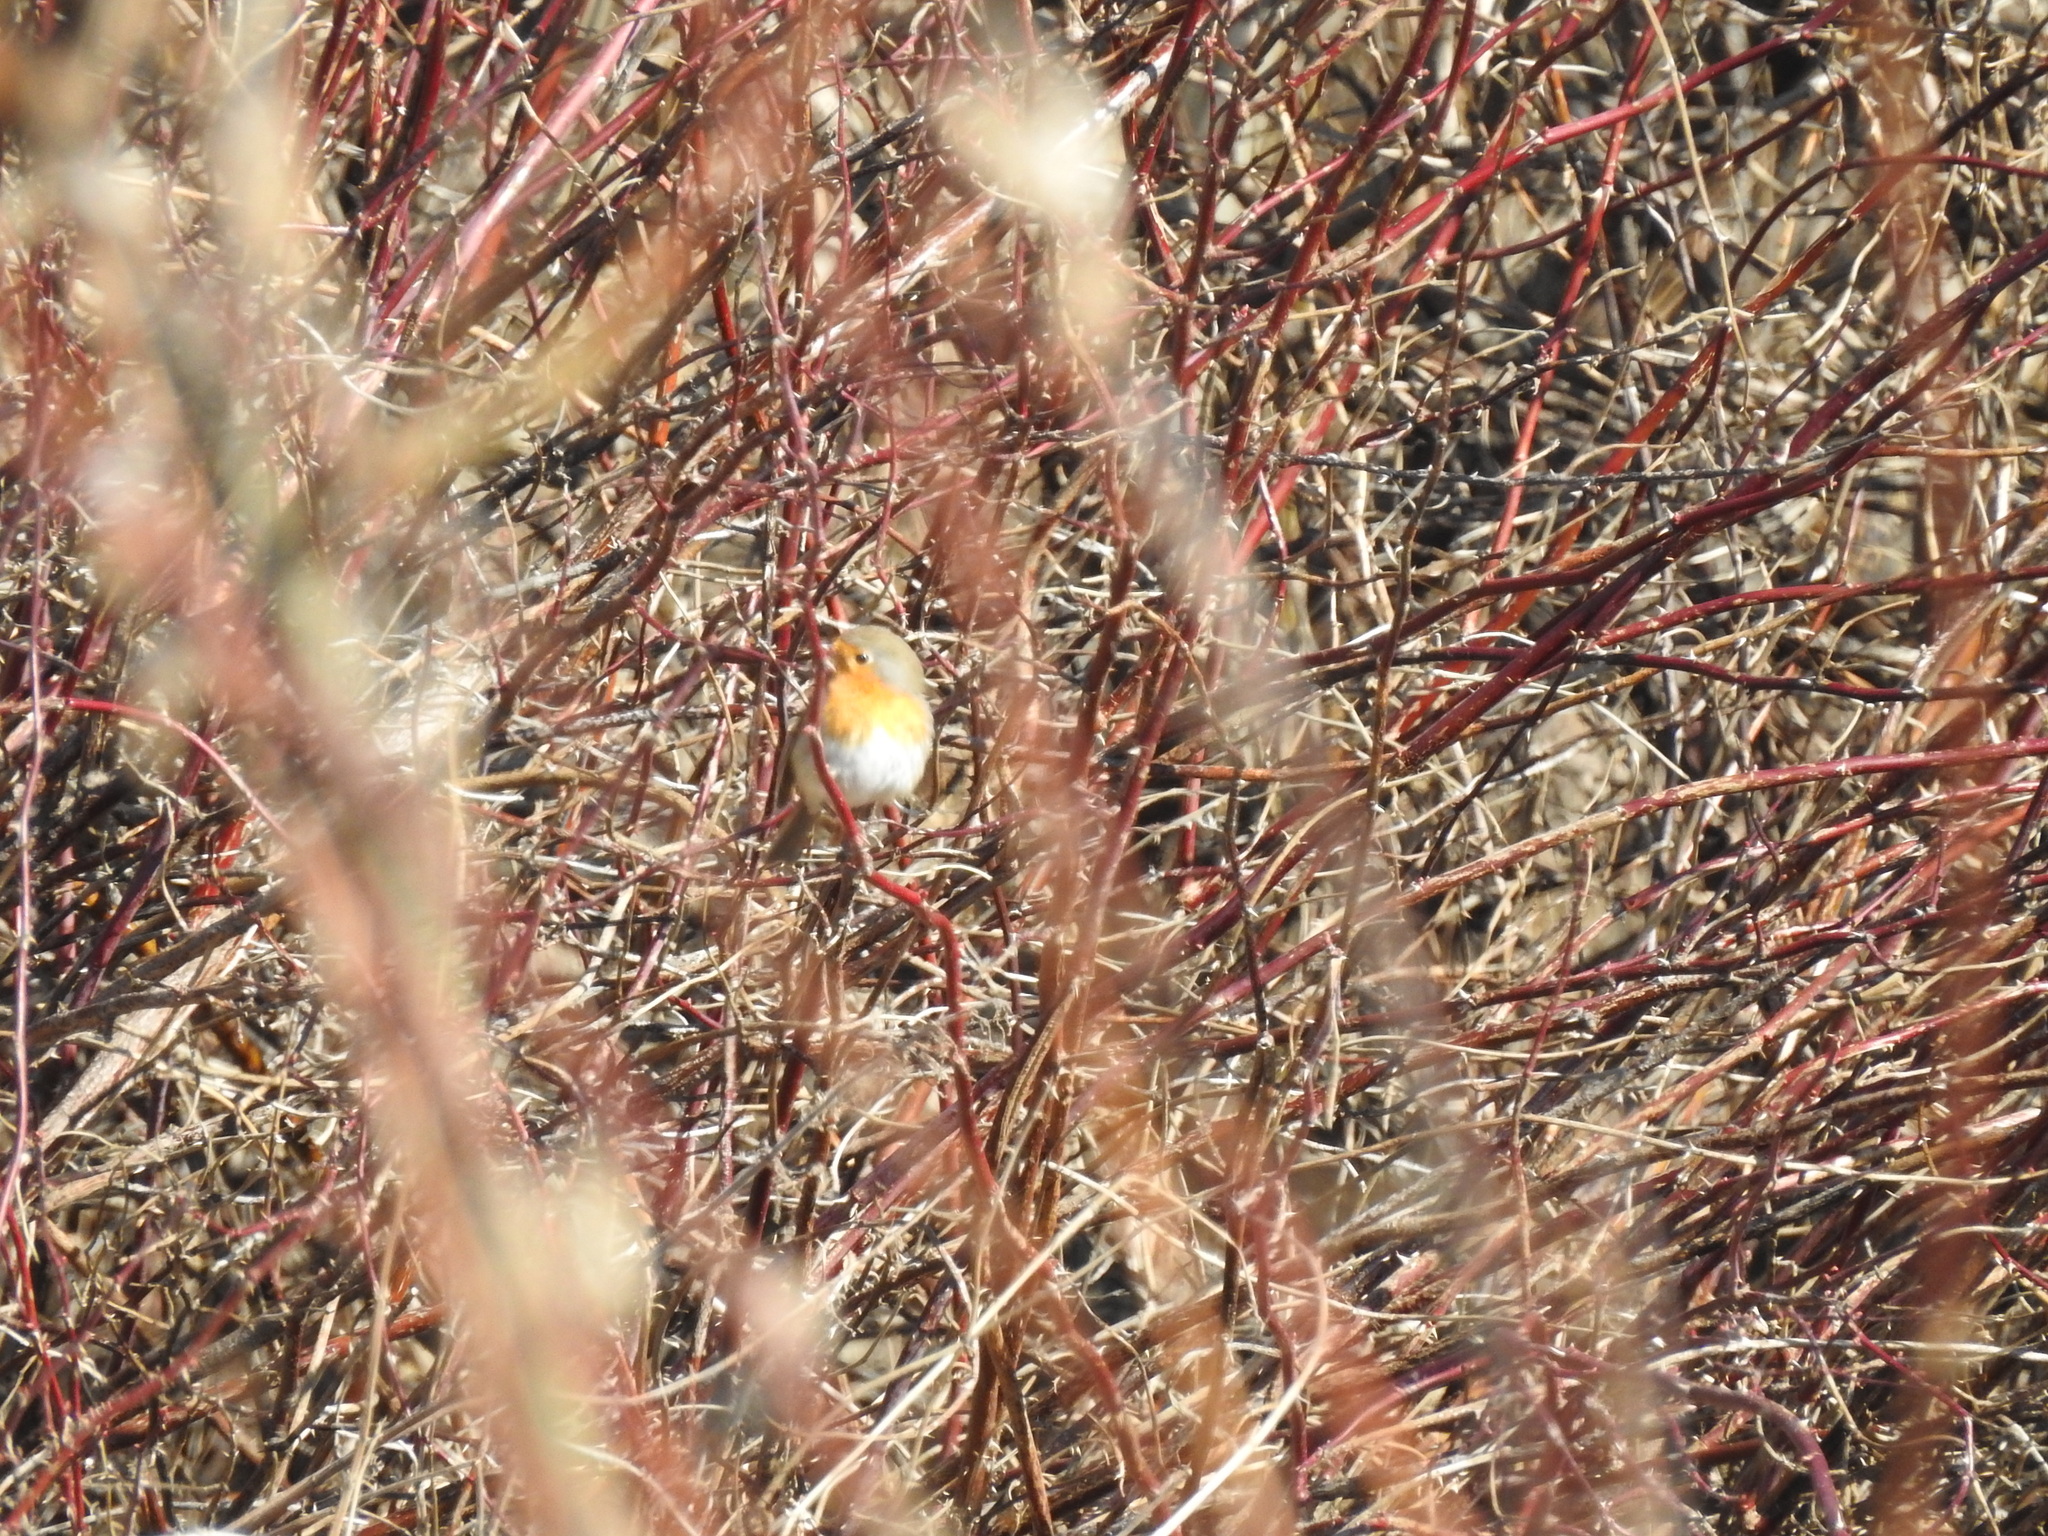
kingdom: Animalia
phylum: Chordata
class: Aves
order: Passeriformes
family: Muscicapidae
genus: Erithacus
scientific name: Erithacus rubecula
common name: European robin
